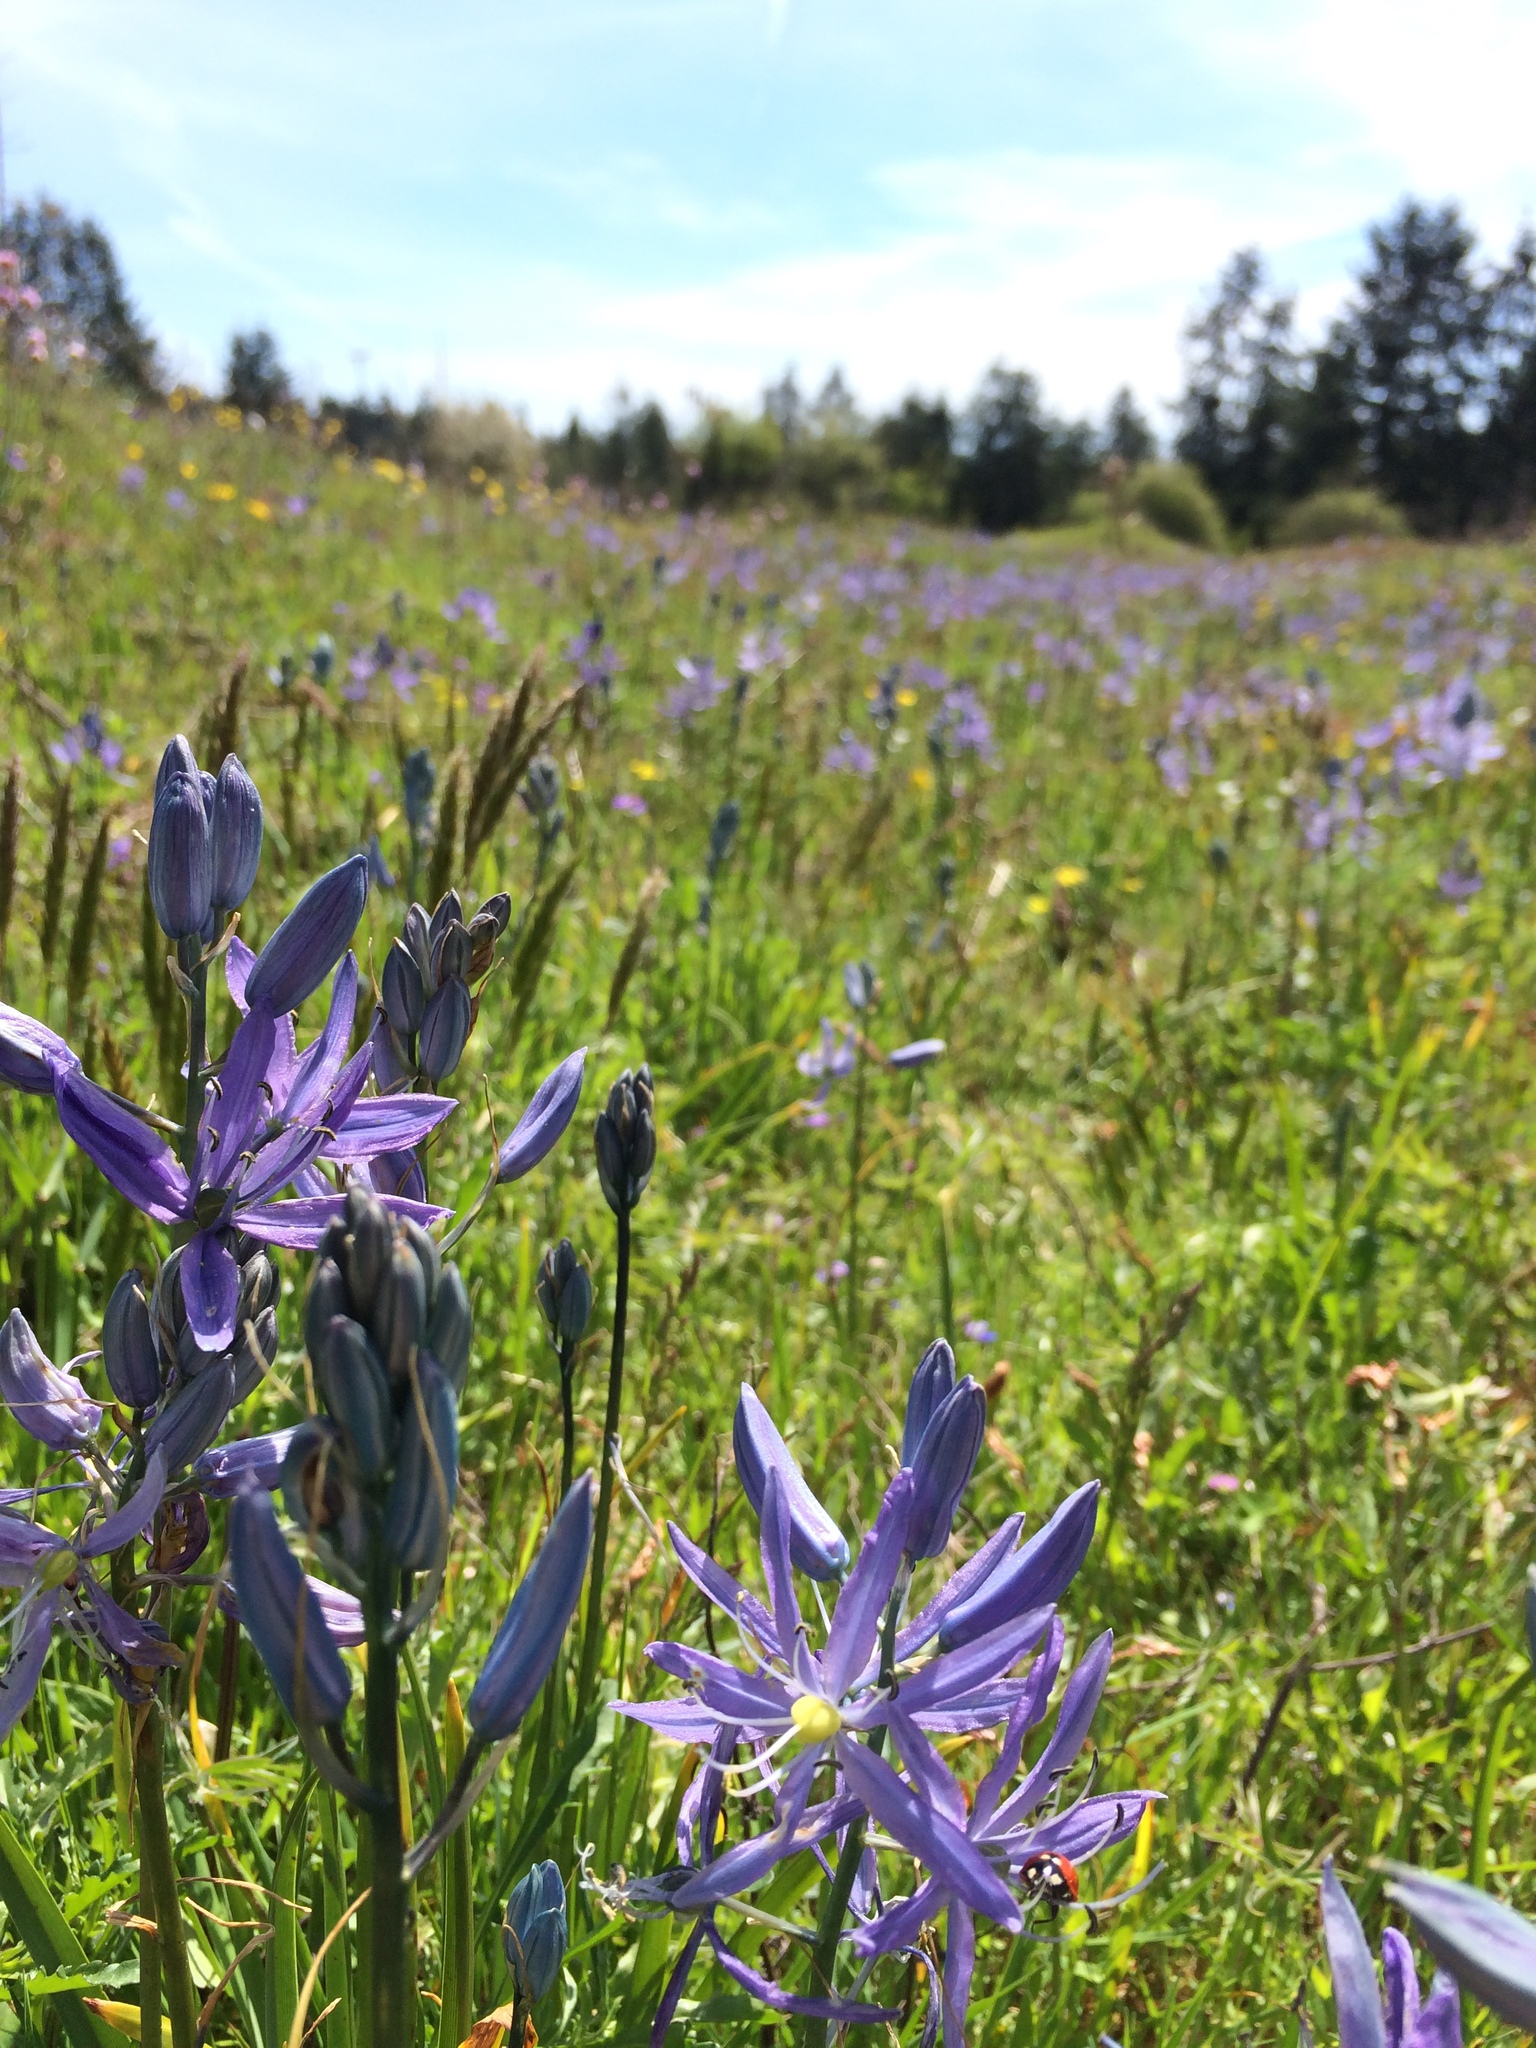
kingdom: Plantae
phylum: Tracheophyta
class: Liliopsida
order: Asparagales
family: Asparagaceae
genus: Camassia
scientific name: Camassia quamash
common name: Common camas
